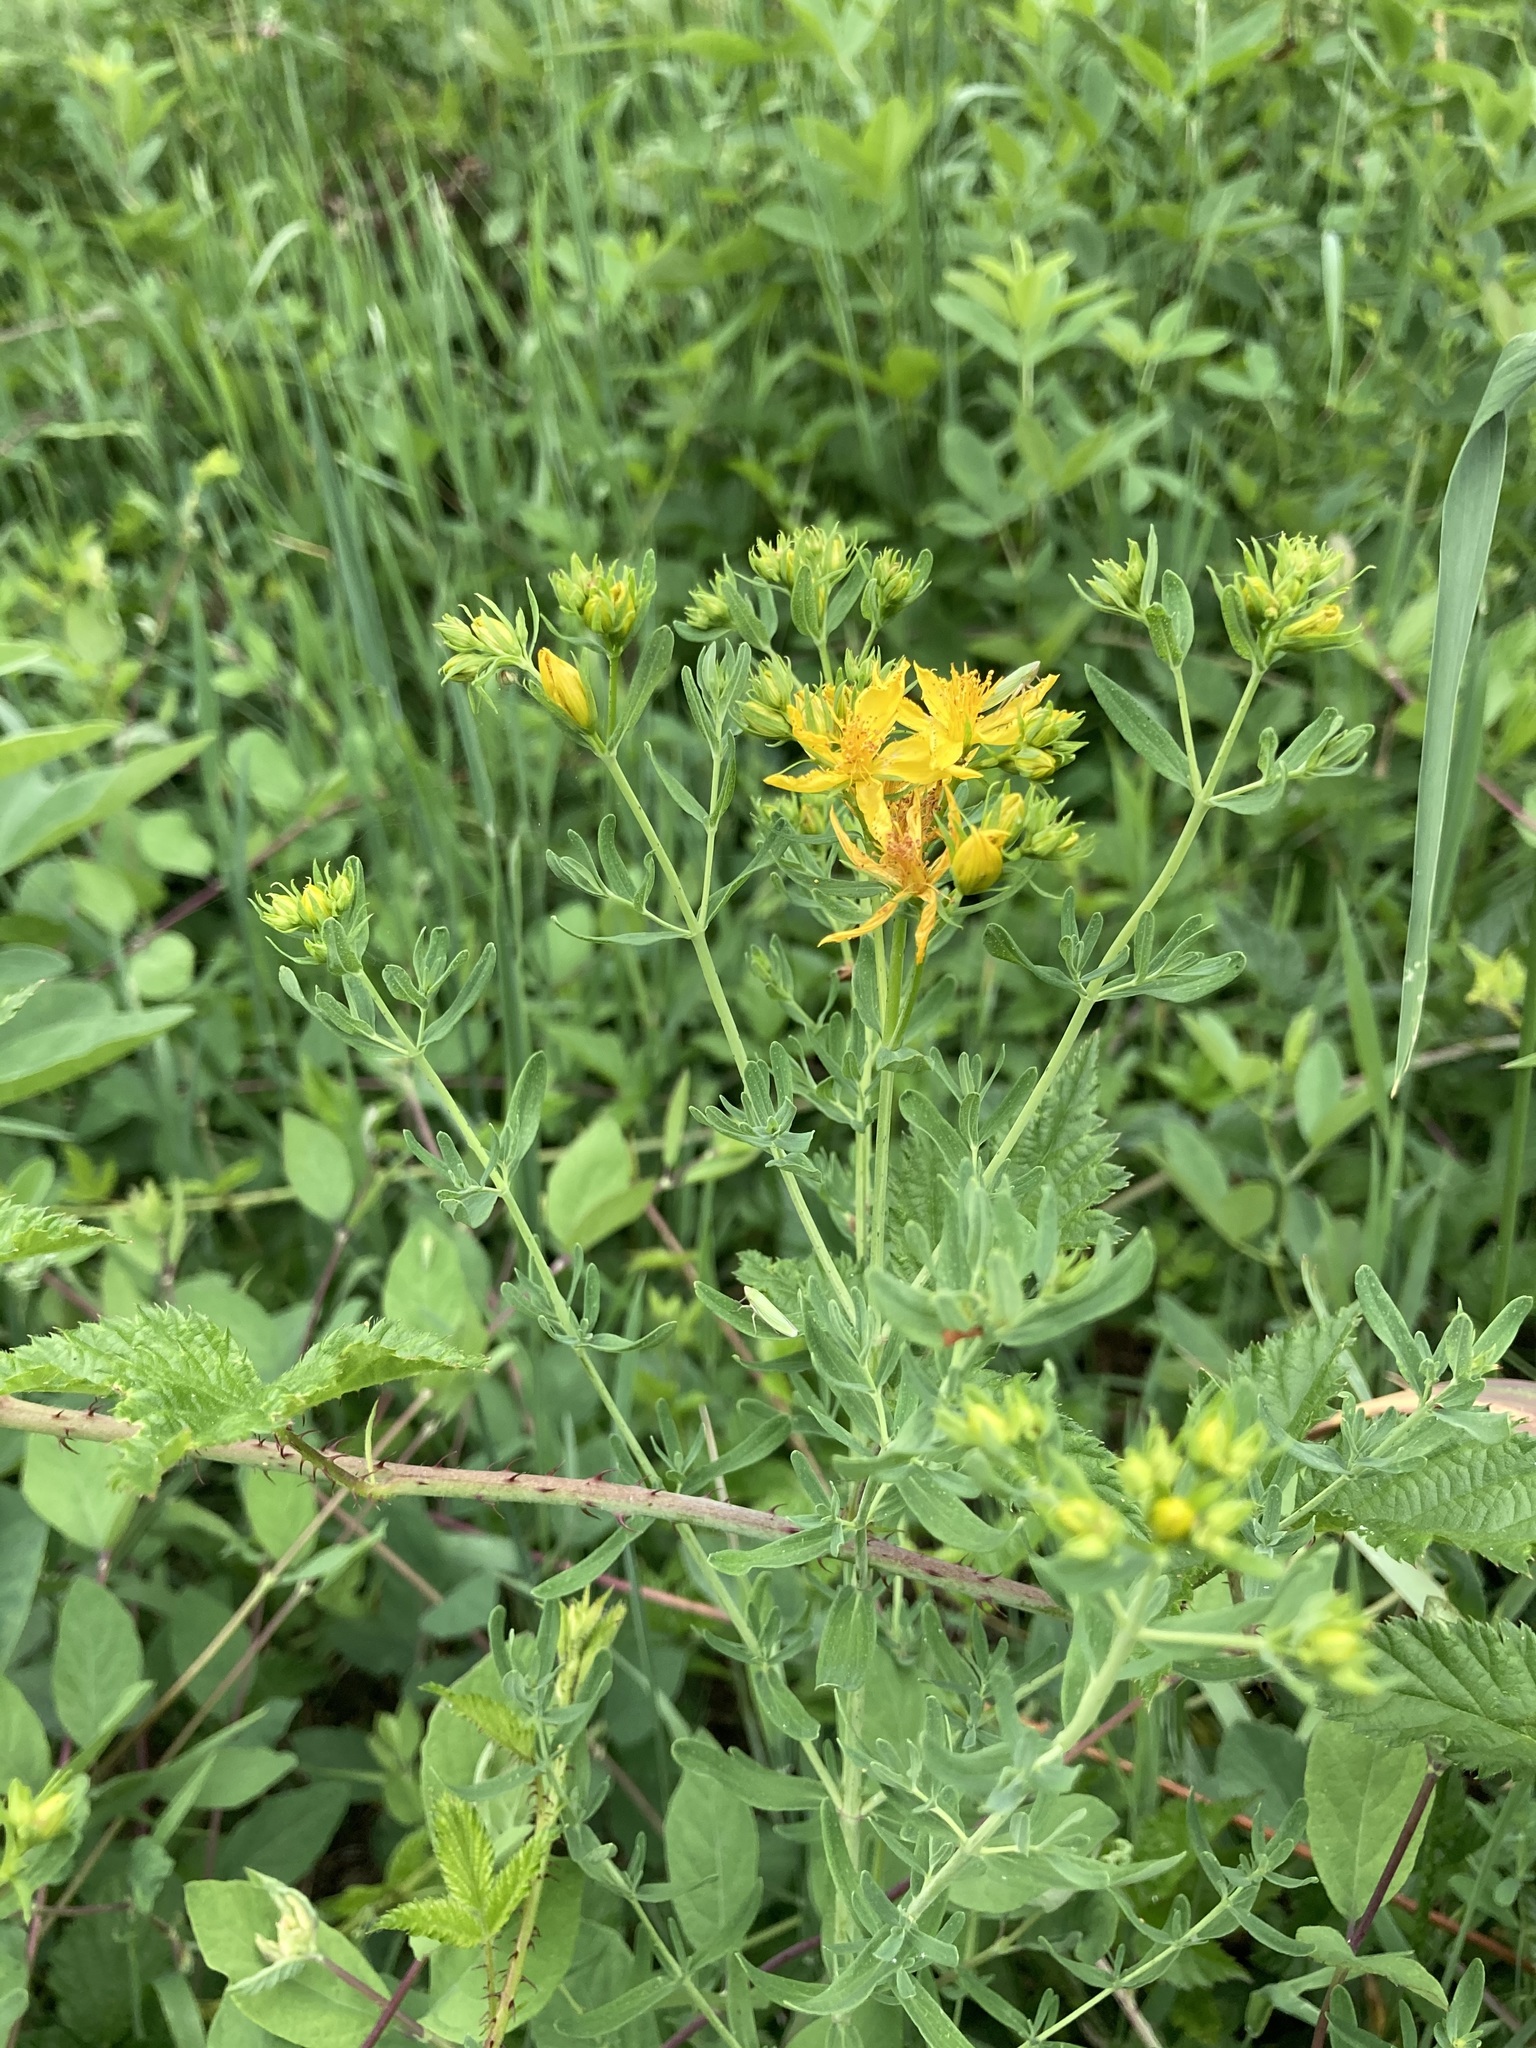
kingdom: Plantae
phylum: Tracheophyta
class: Magnoliopsida
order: Malpighiales
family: Hypericaceae
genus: Hypericum
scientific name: Hypericum perforatum
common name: Common st. johnswort
